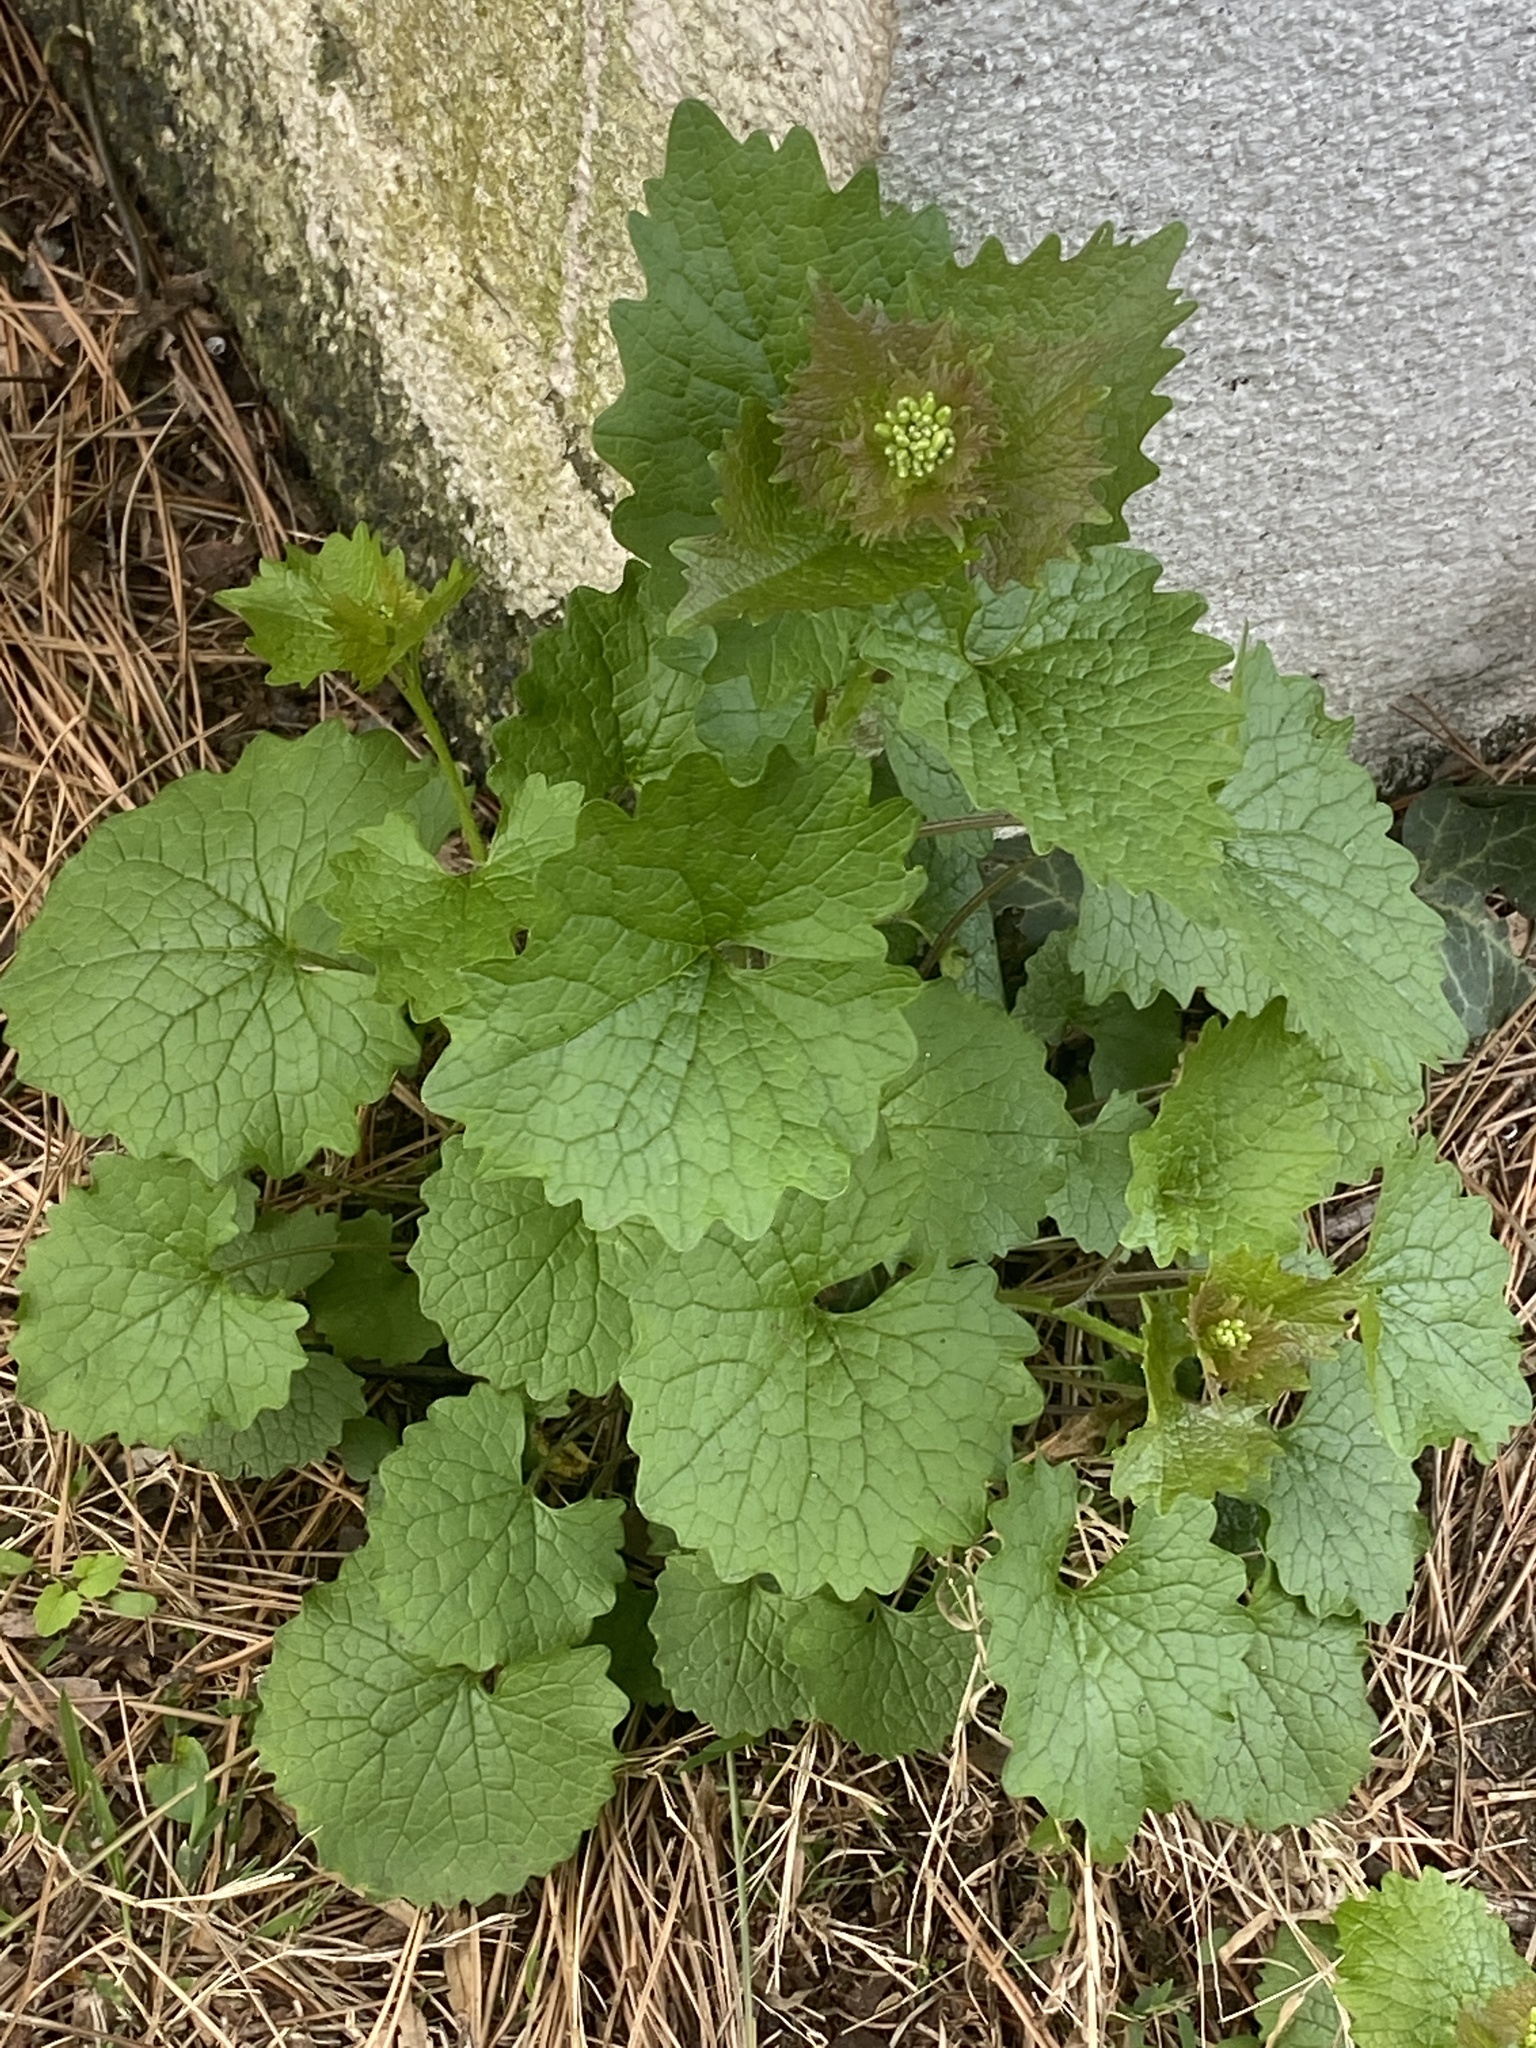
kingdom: Plantae
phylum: Tracheophyta
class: Magnoliopsida
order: Brassicales
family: Brassicaceae
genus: Alliaria
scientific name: Alliaria petiolata
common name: Garlic mustard
